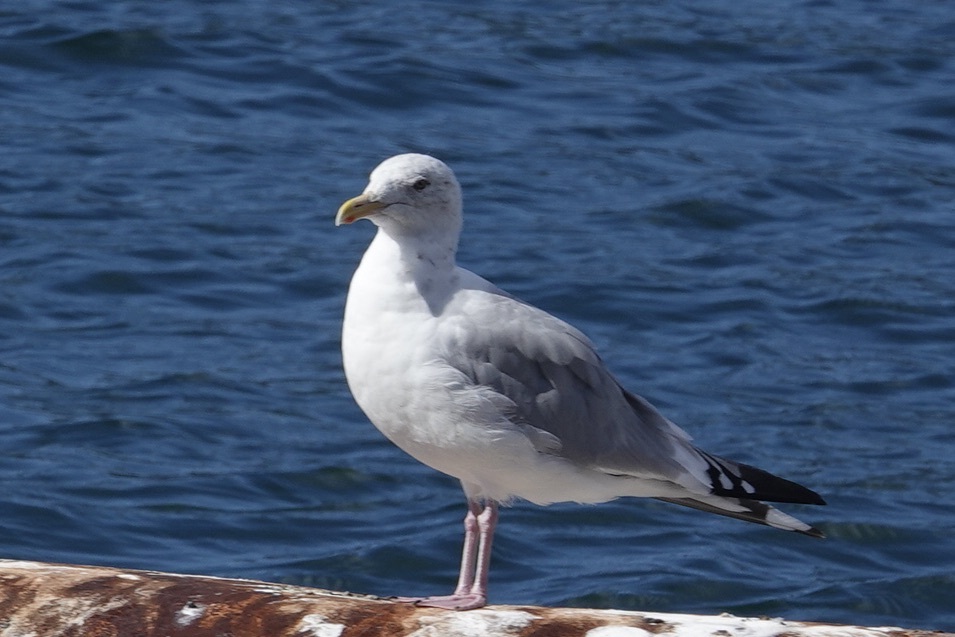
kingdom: Animalia
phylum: Chordata
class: Aves
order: Charadriiformes
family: Laridae
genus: Larus
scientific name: Larus argentatus
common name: Herring gull
